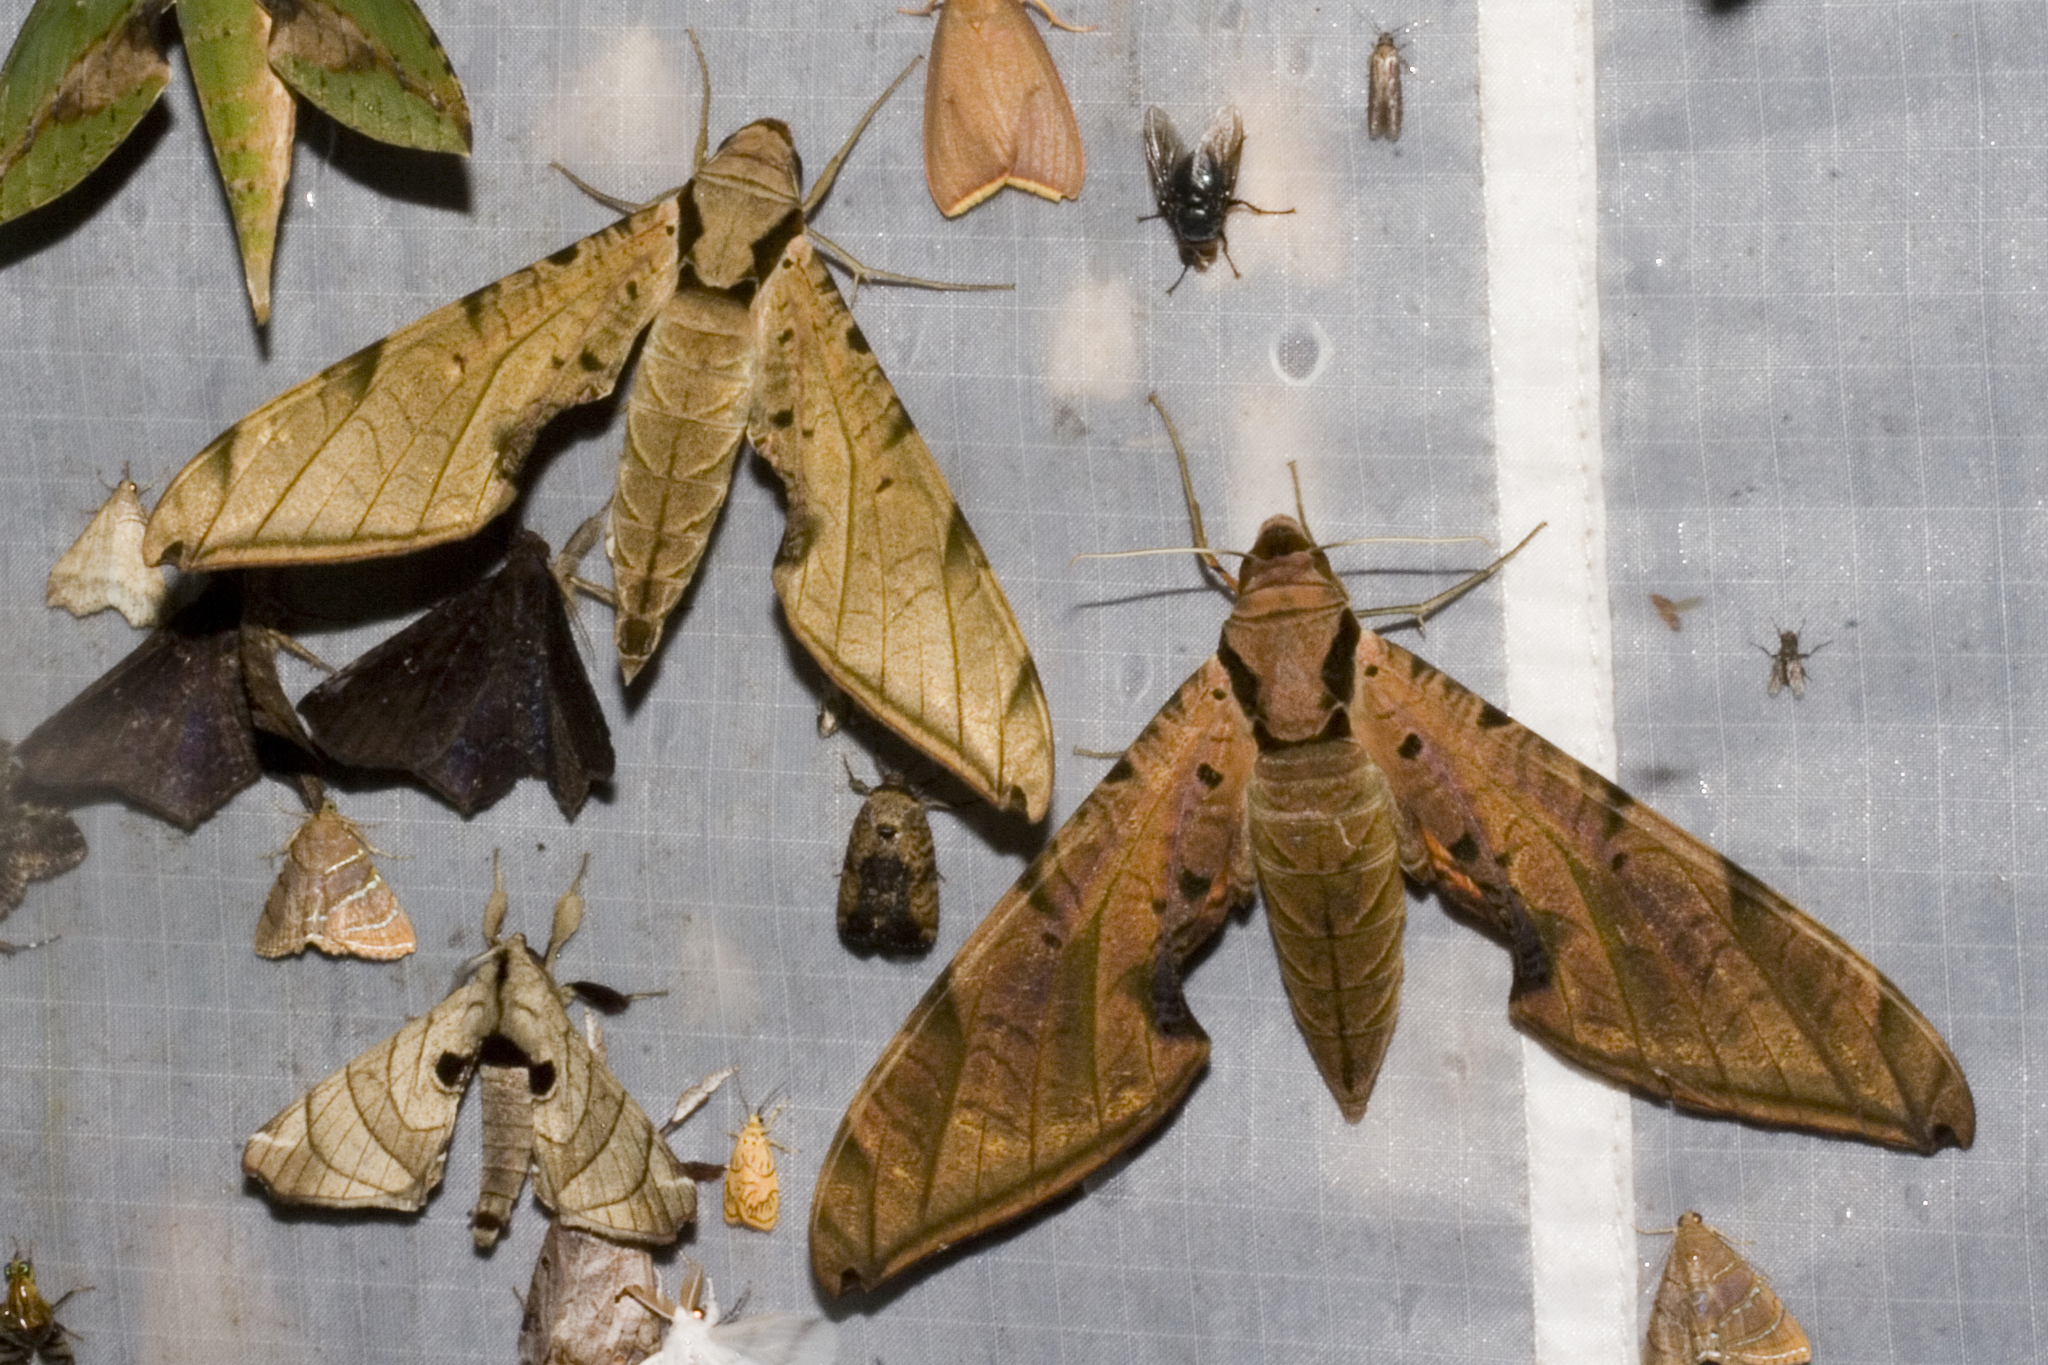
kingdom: Animalia
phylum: Arthropoda
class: Insecta
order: Lepidoptera
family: Sphingidae
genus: Protambulyx
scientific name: Protambulyx strigilis
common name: Streaked sphinx
